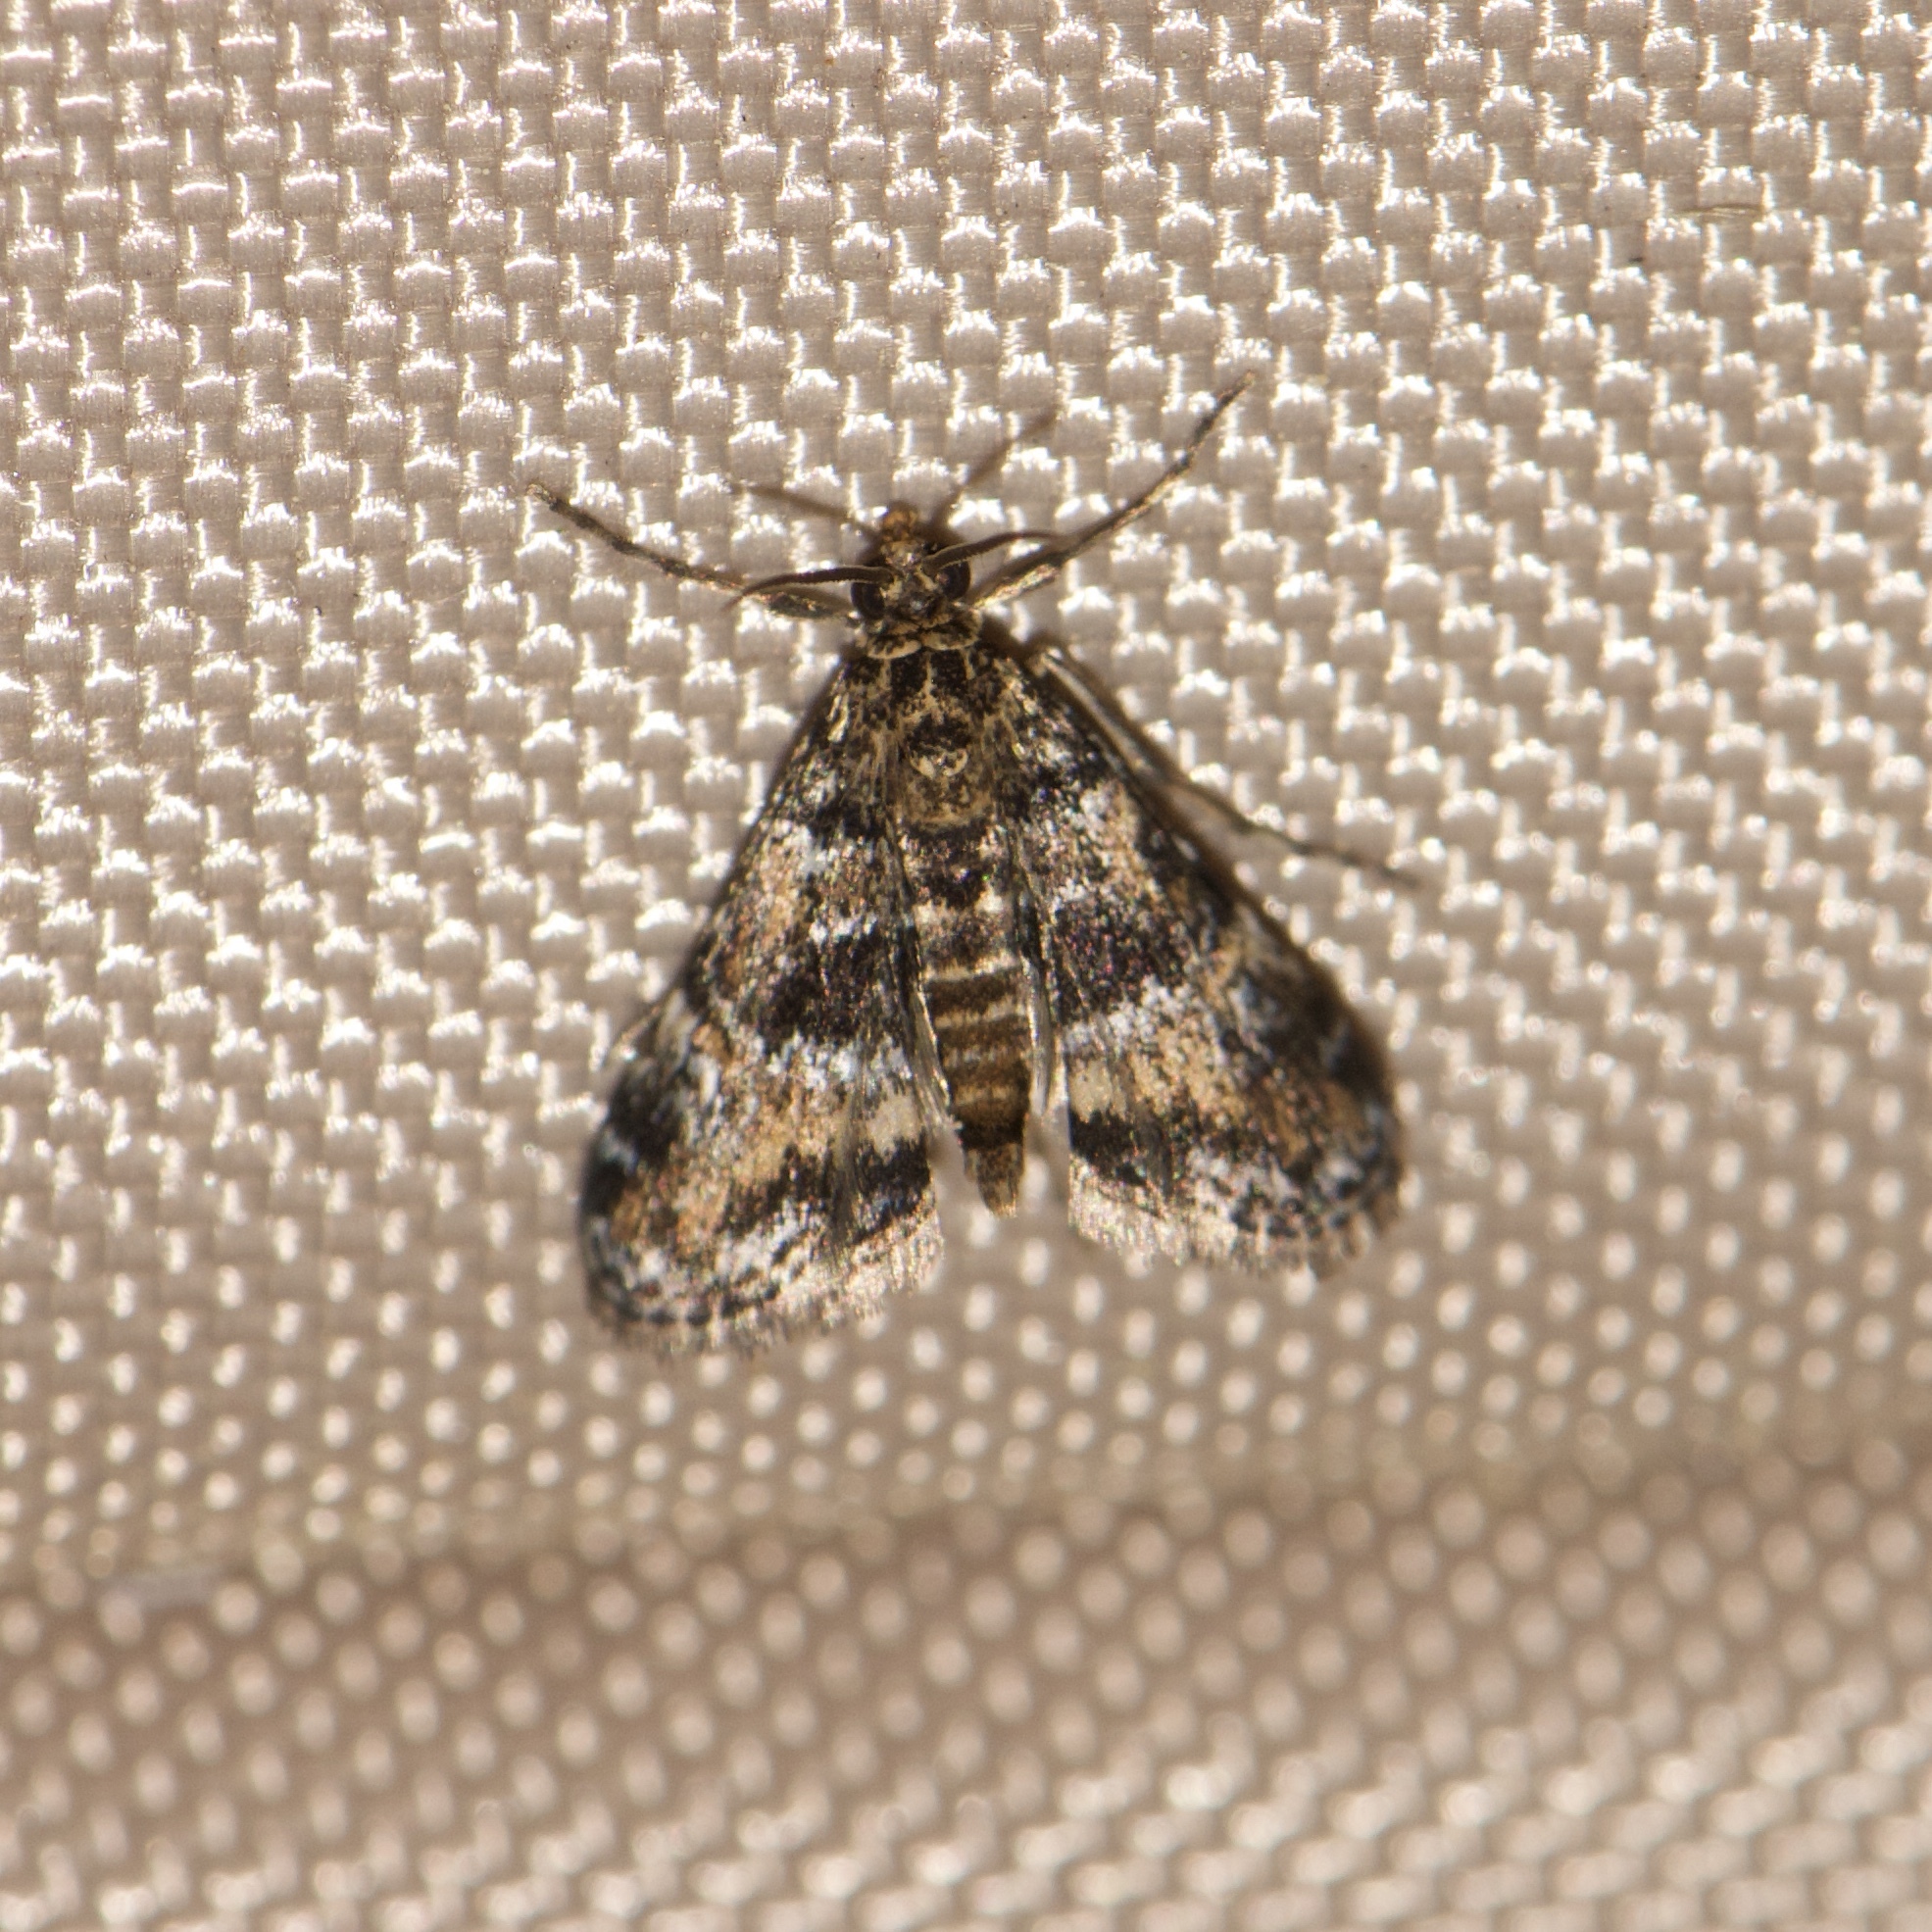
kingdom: Animalia
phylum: Arthropoda
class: Insecta
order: Lepidoptera
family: Crambidae
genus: Elophila
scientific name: Elophila obliteralis
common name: Waterlily leafcutter moth
